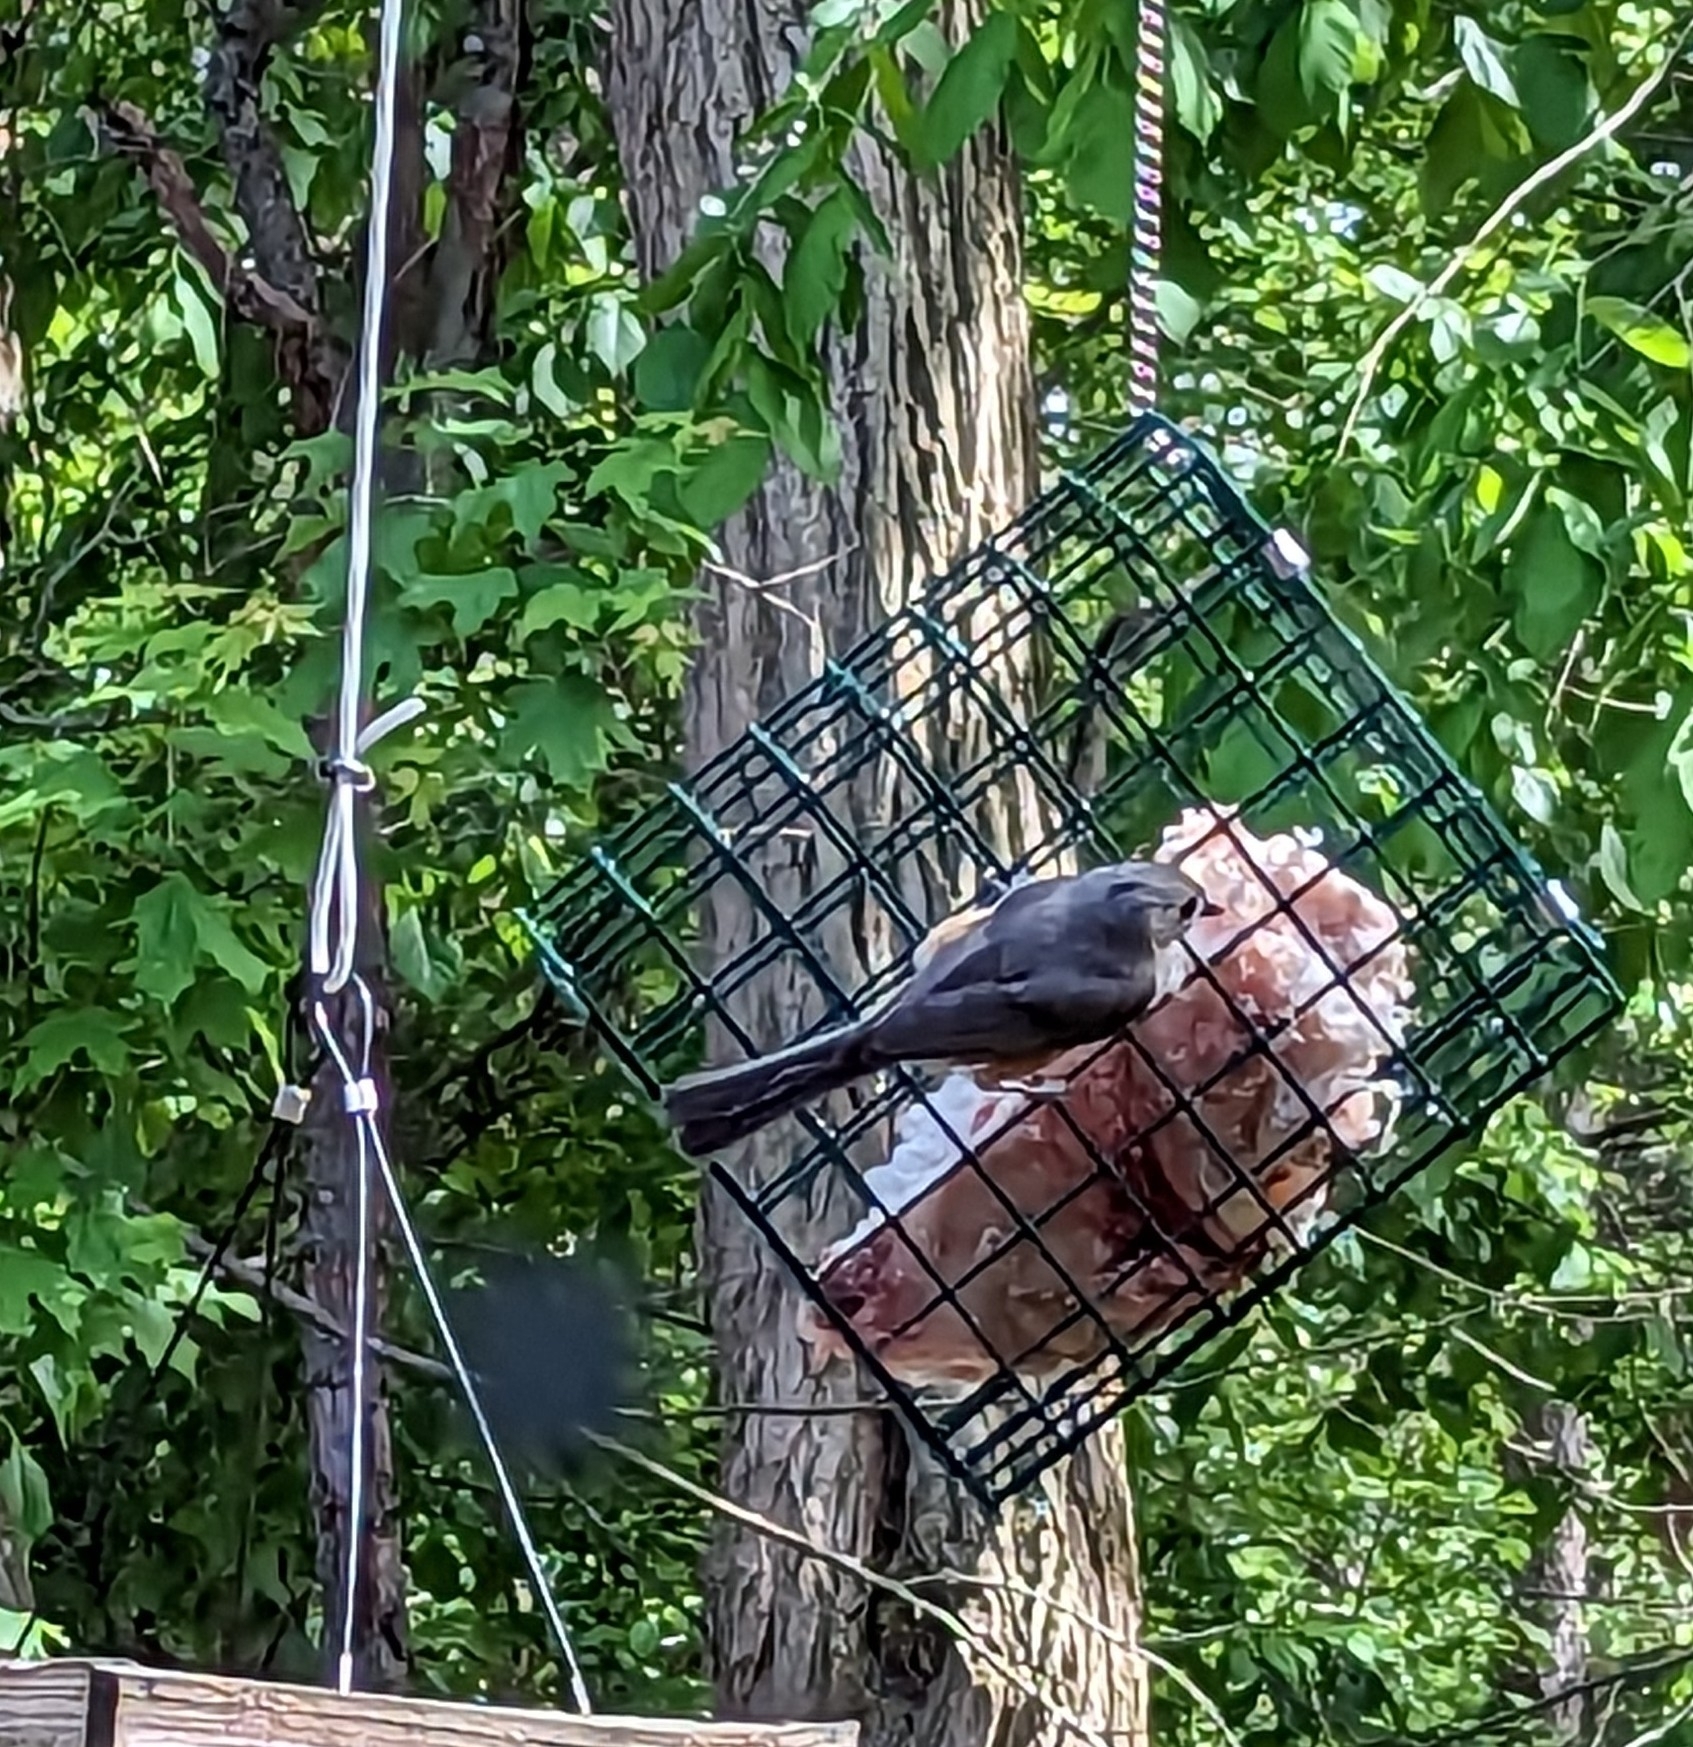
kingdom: Animalia
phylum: Chordata
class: Aves
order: Passeriformes
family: Paridae
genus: Baeolophus
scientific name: Baeolophus bicolor
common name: Tufted titmouse
